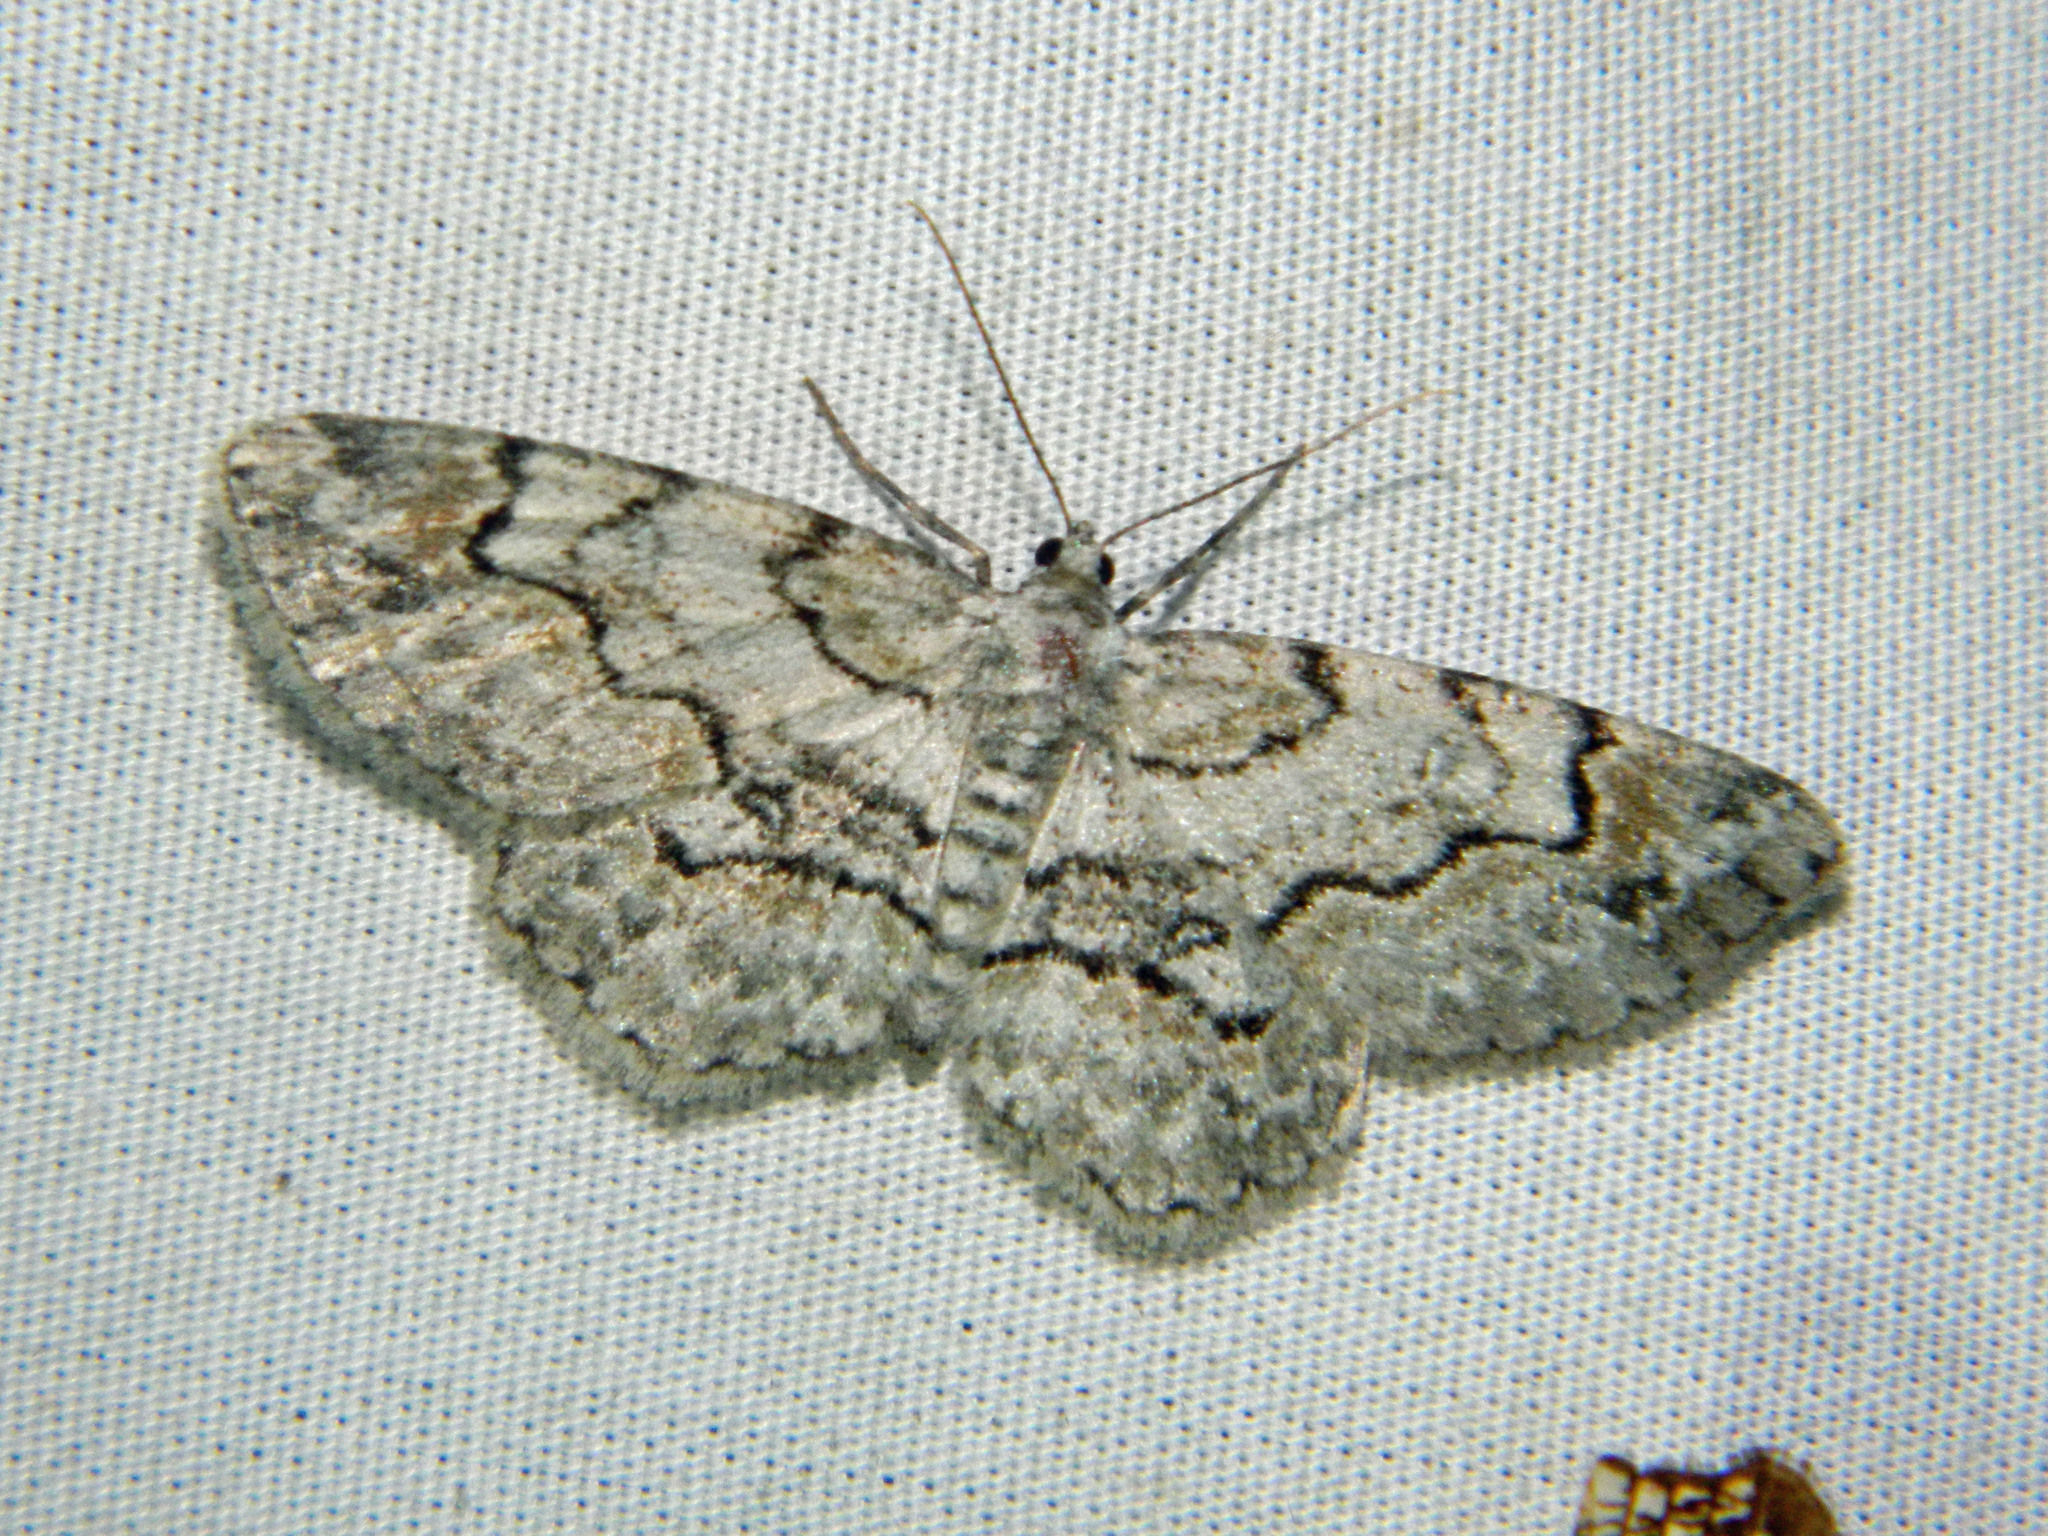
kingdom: Animalia
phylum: Arthropoda
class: Insecta
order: Lepidoptera
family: Geometridae
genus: Iridopsis
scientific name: Iridopsis ephyraria
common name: Pale-winged gray
